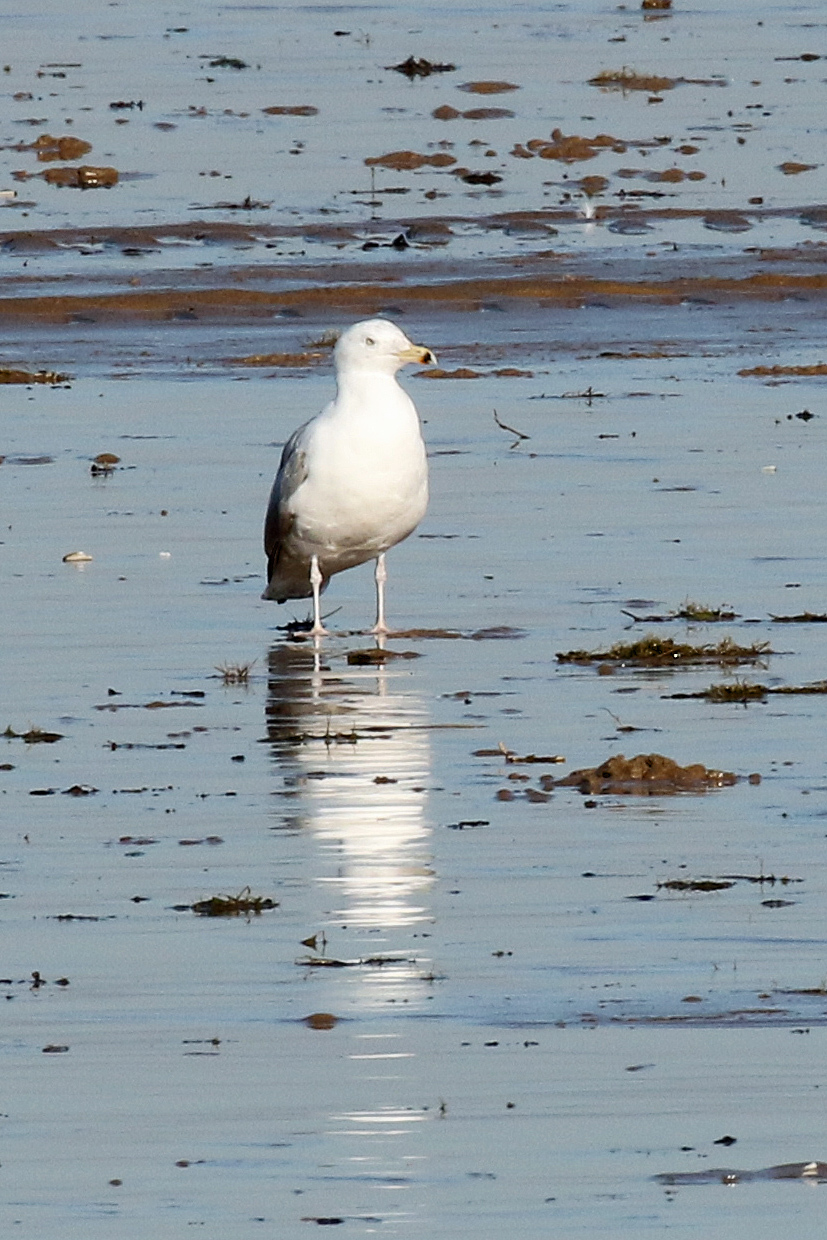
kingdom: Animalia
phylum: Chordata
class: Aves
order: Charadriiformes
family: Laridae
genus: Larus
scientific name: Larus argentatus
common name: Herring gull
